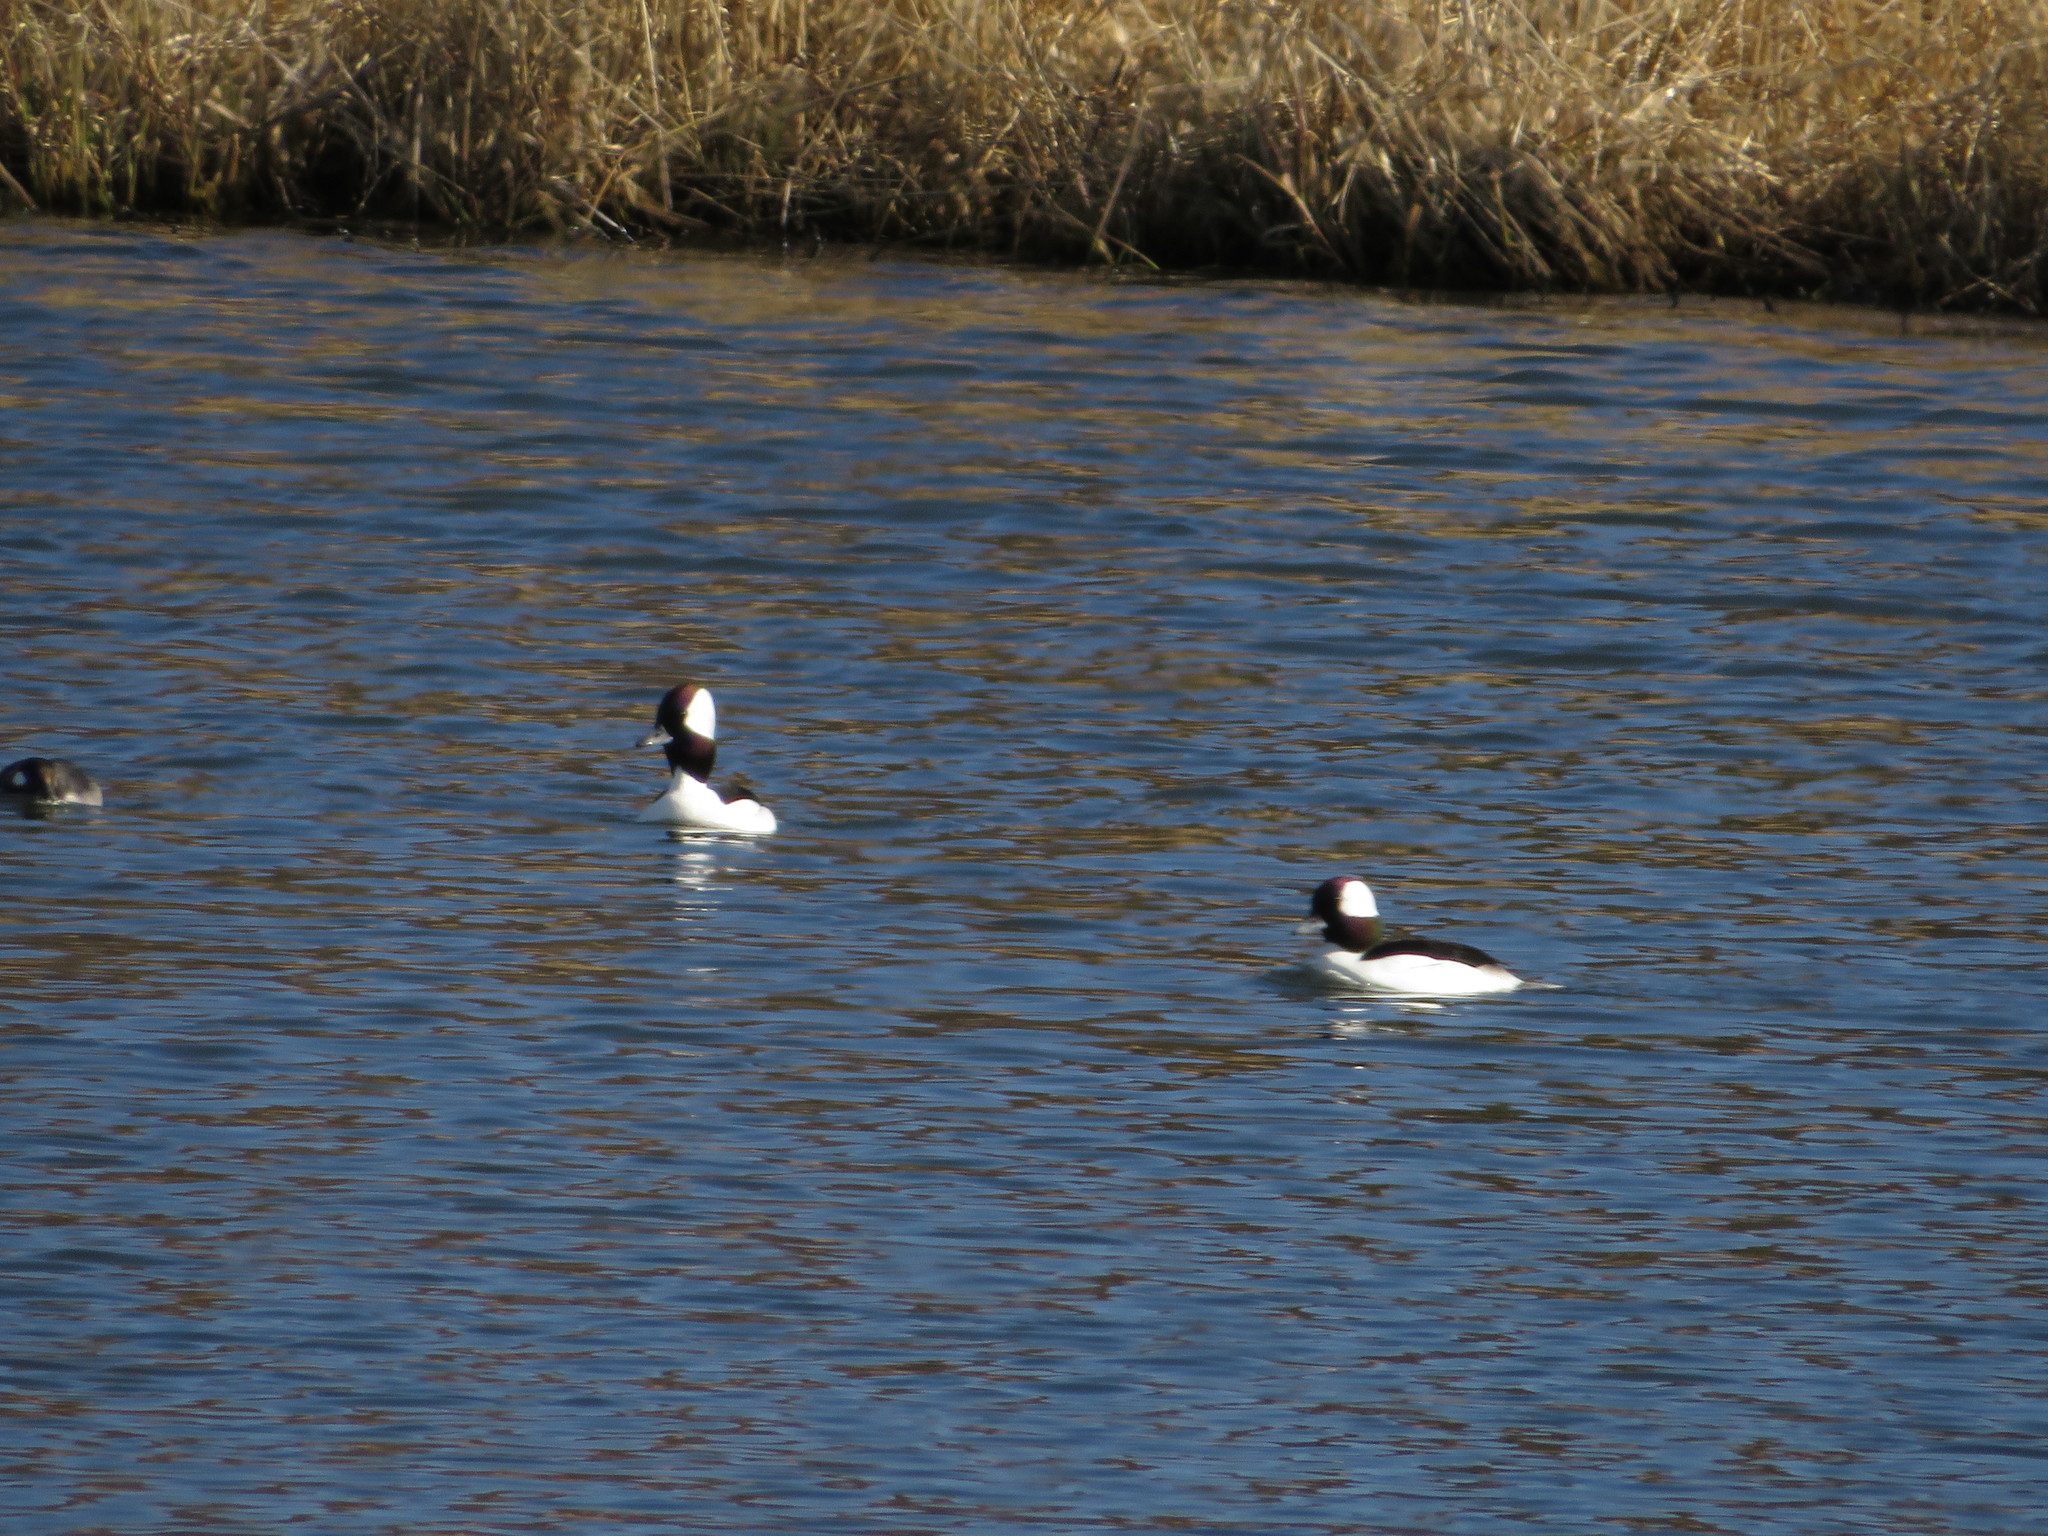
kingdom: Animalia
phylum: Chordata
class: Aves
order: Anseriformes
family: Anatidae
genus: Bucephala
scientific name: Bucephala albeola
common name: Bufflehead
